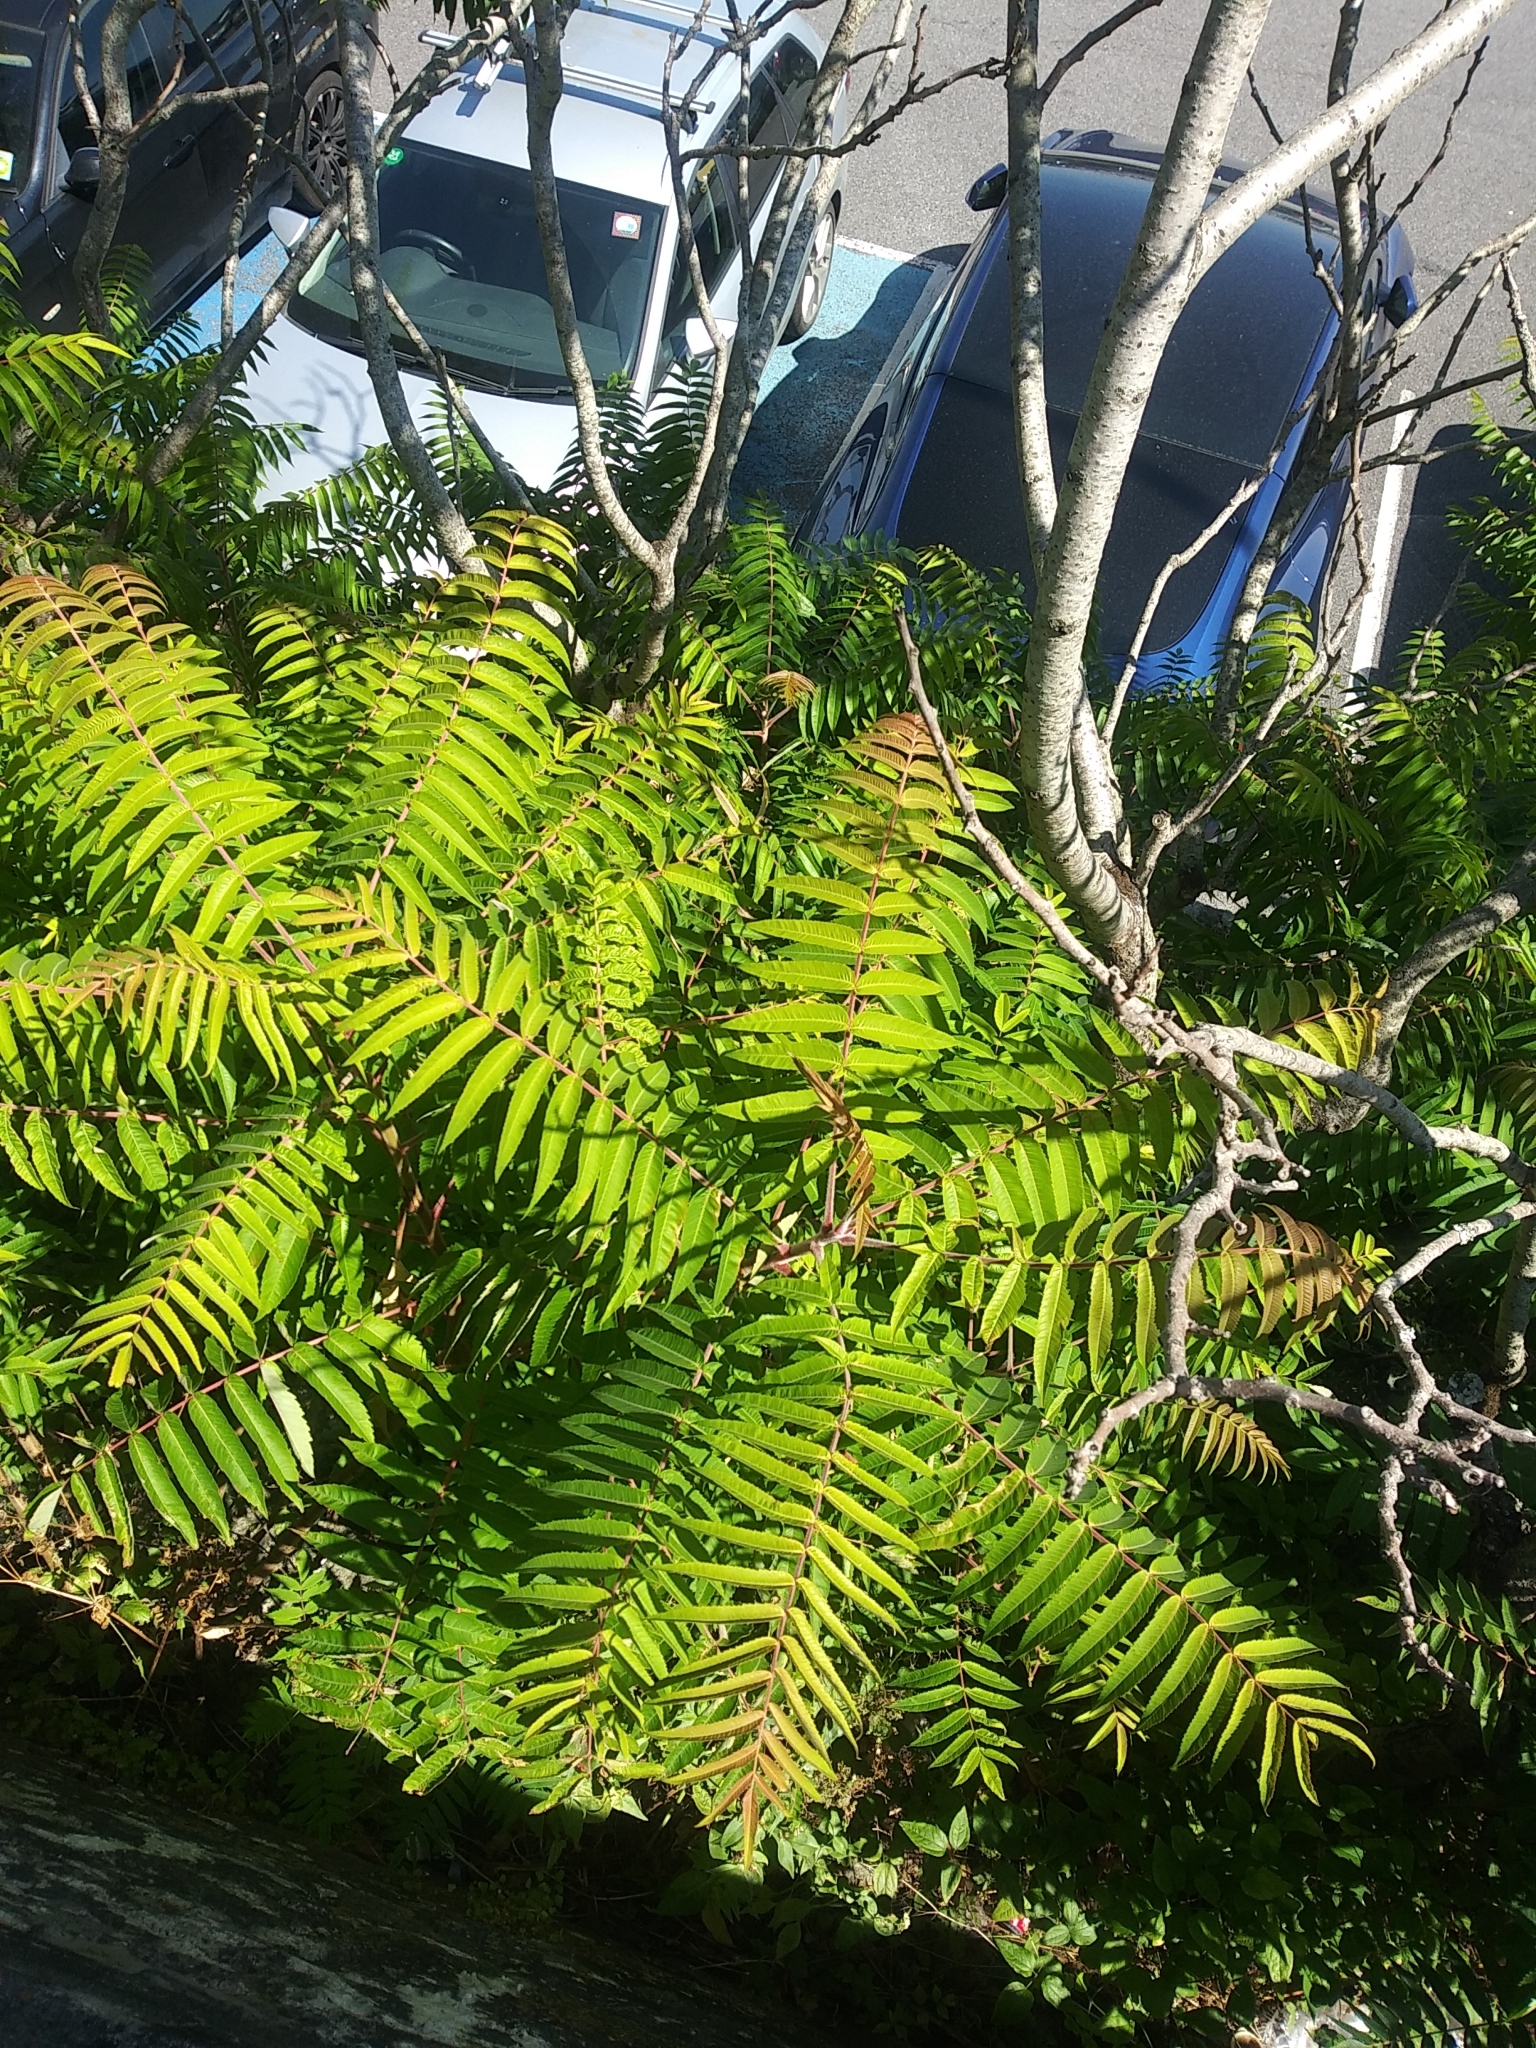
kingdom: Plantae
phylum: Tracheophyta
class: Magnoliopsida
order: Sapindales
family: Anacardiaceae
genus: Rhus
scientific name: Rhus typhina
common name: Staghorn sumac
